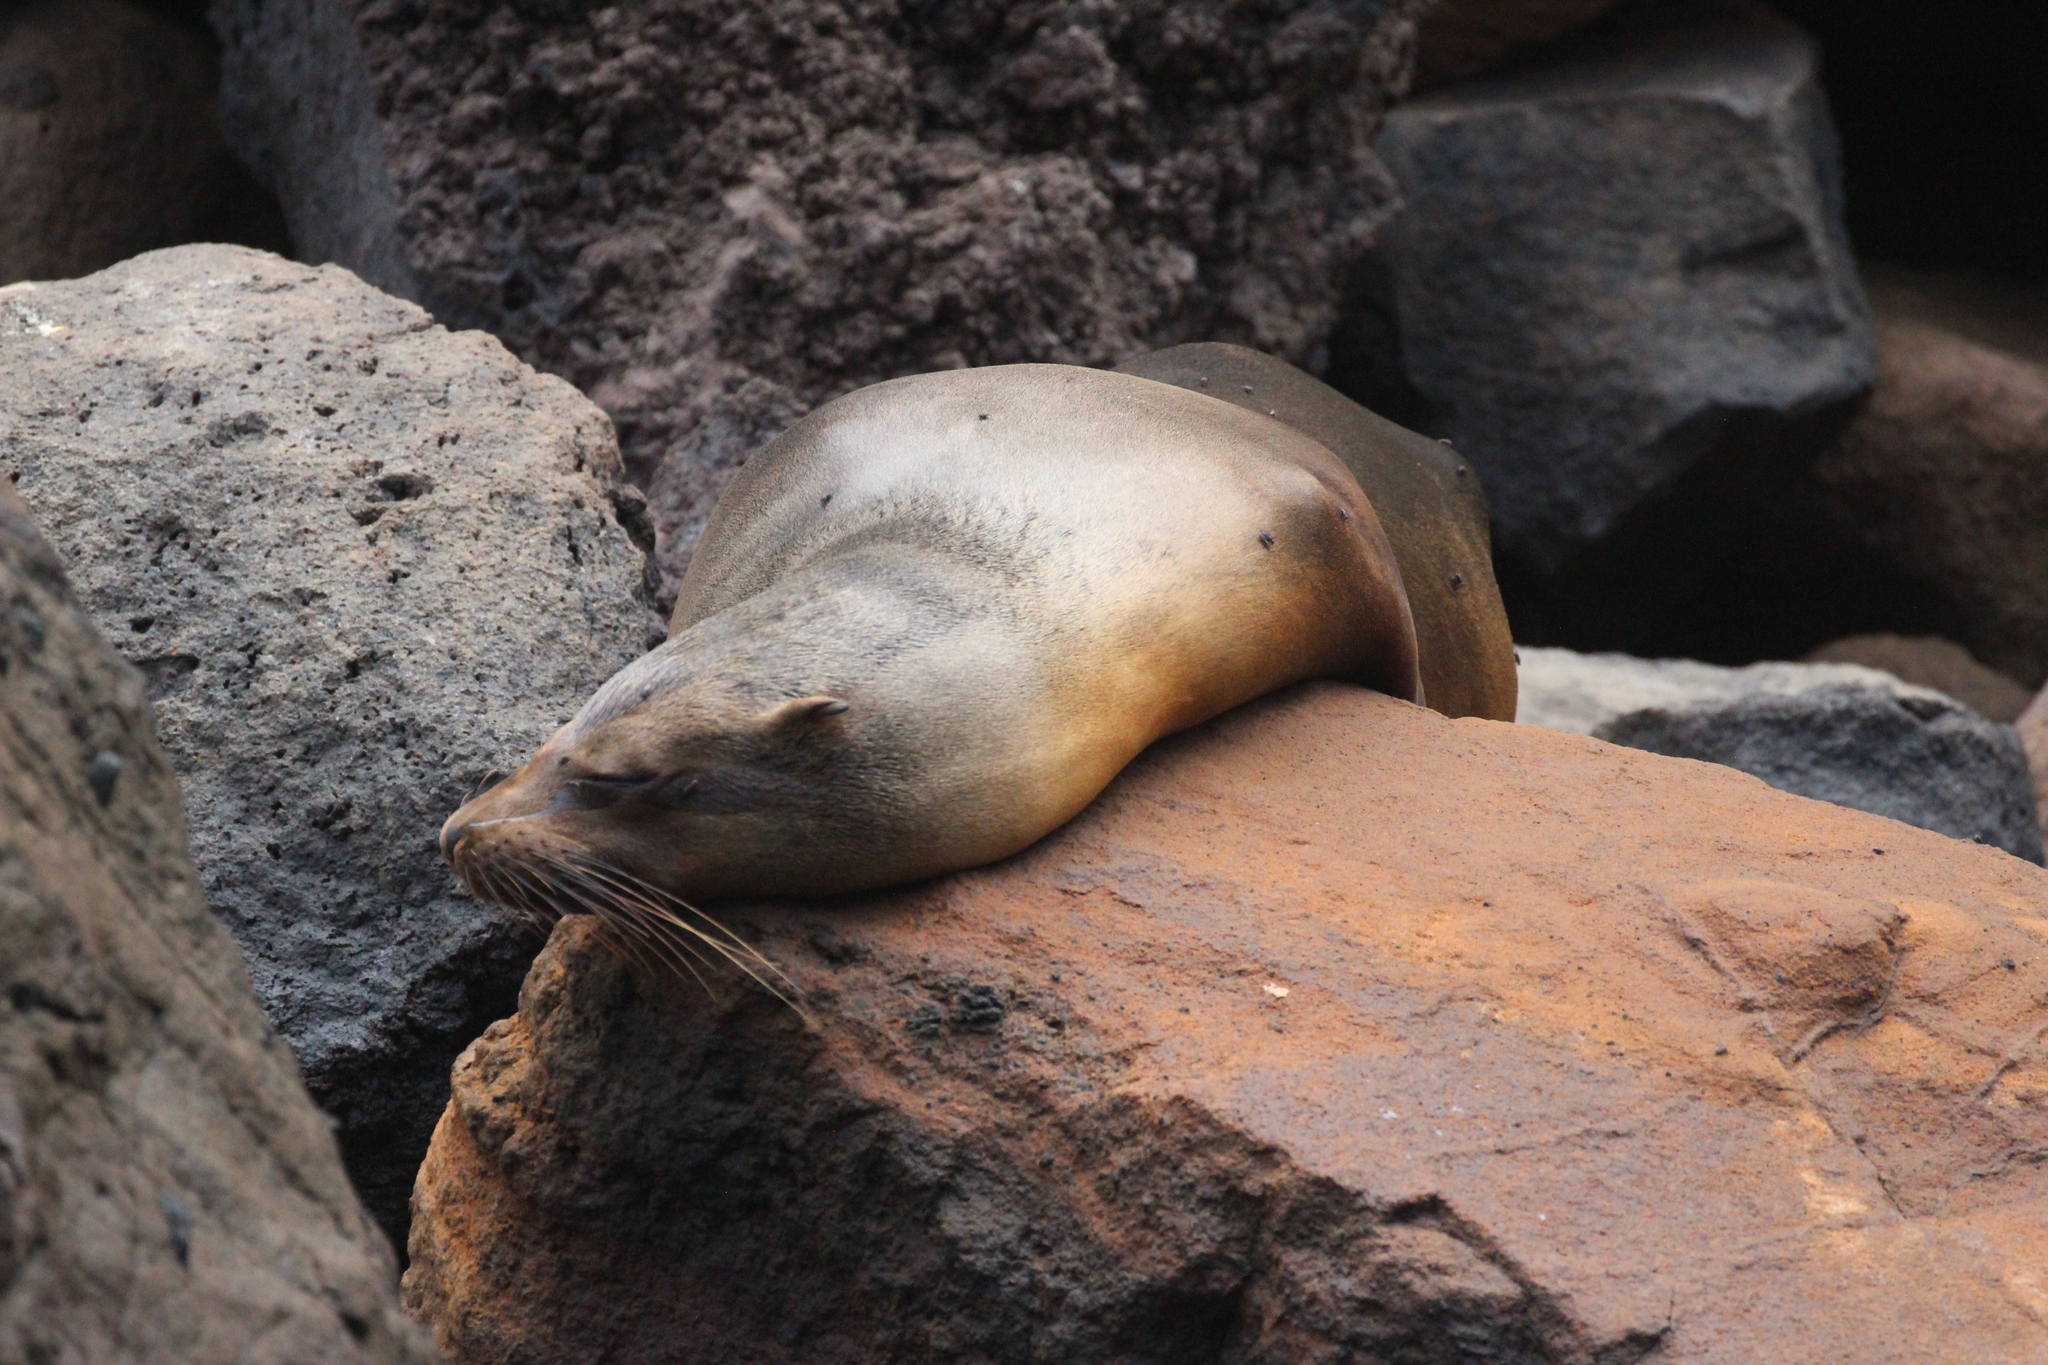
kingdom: Animalia
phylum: Chordata
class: Mammalia
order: Carnivora
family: Otariidae
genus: Zalophus
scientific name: Zalophus wollebaeki
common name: Galapagos sea lion
